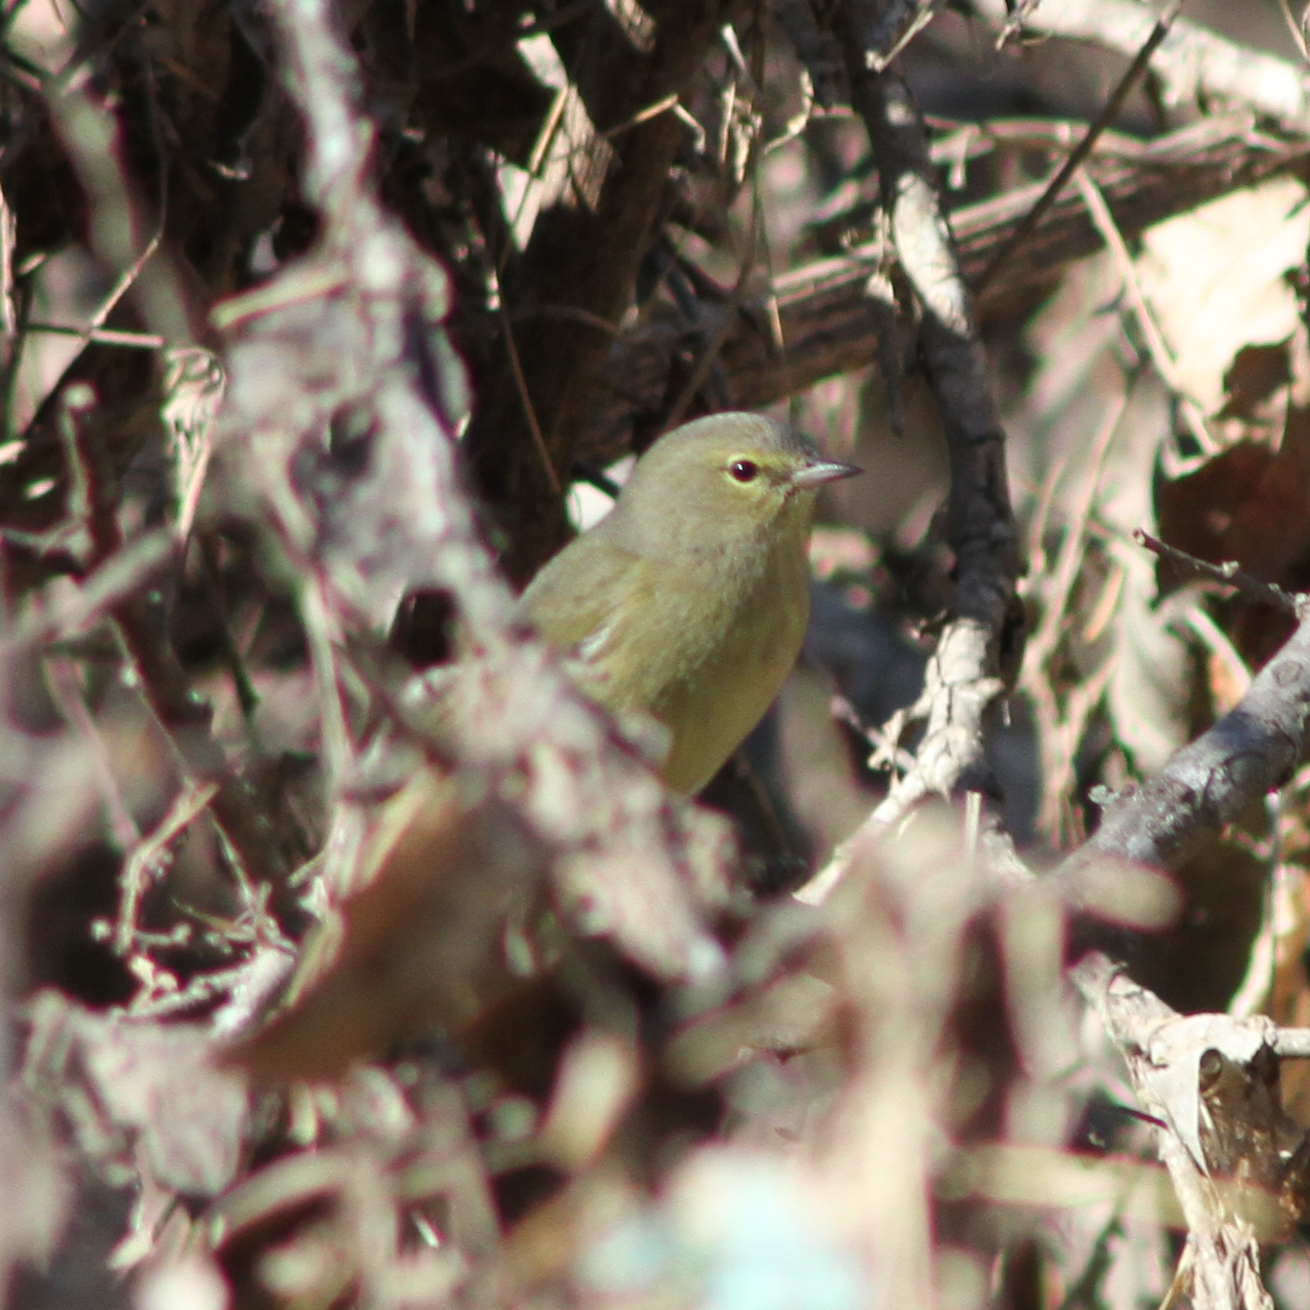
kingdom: Animalia
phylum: Chordata
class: Aves
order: Passeriformes
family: Parulidae
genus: Leiothlypis
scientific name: Leiothlypis celata
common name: Orange-crowned warbler
